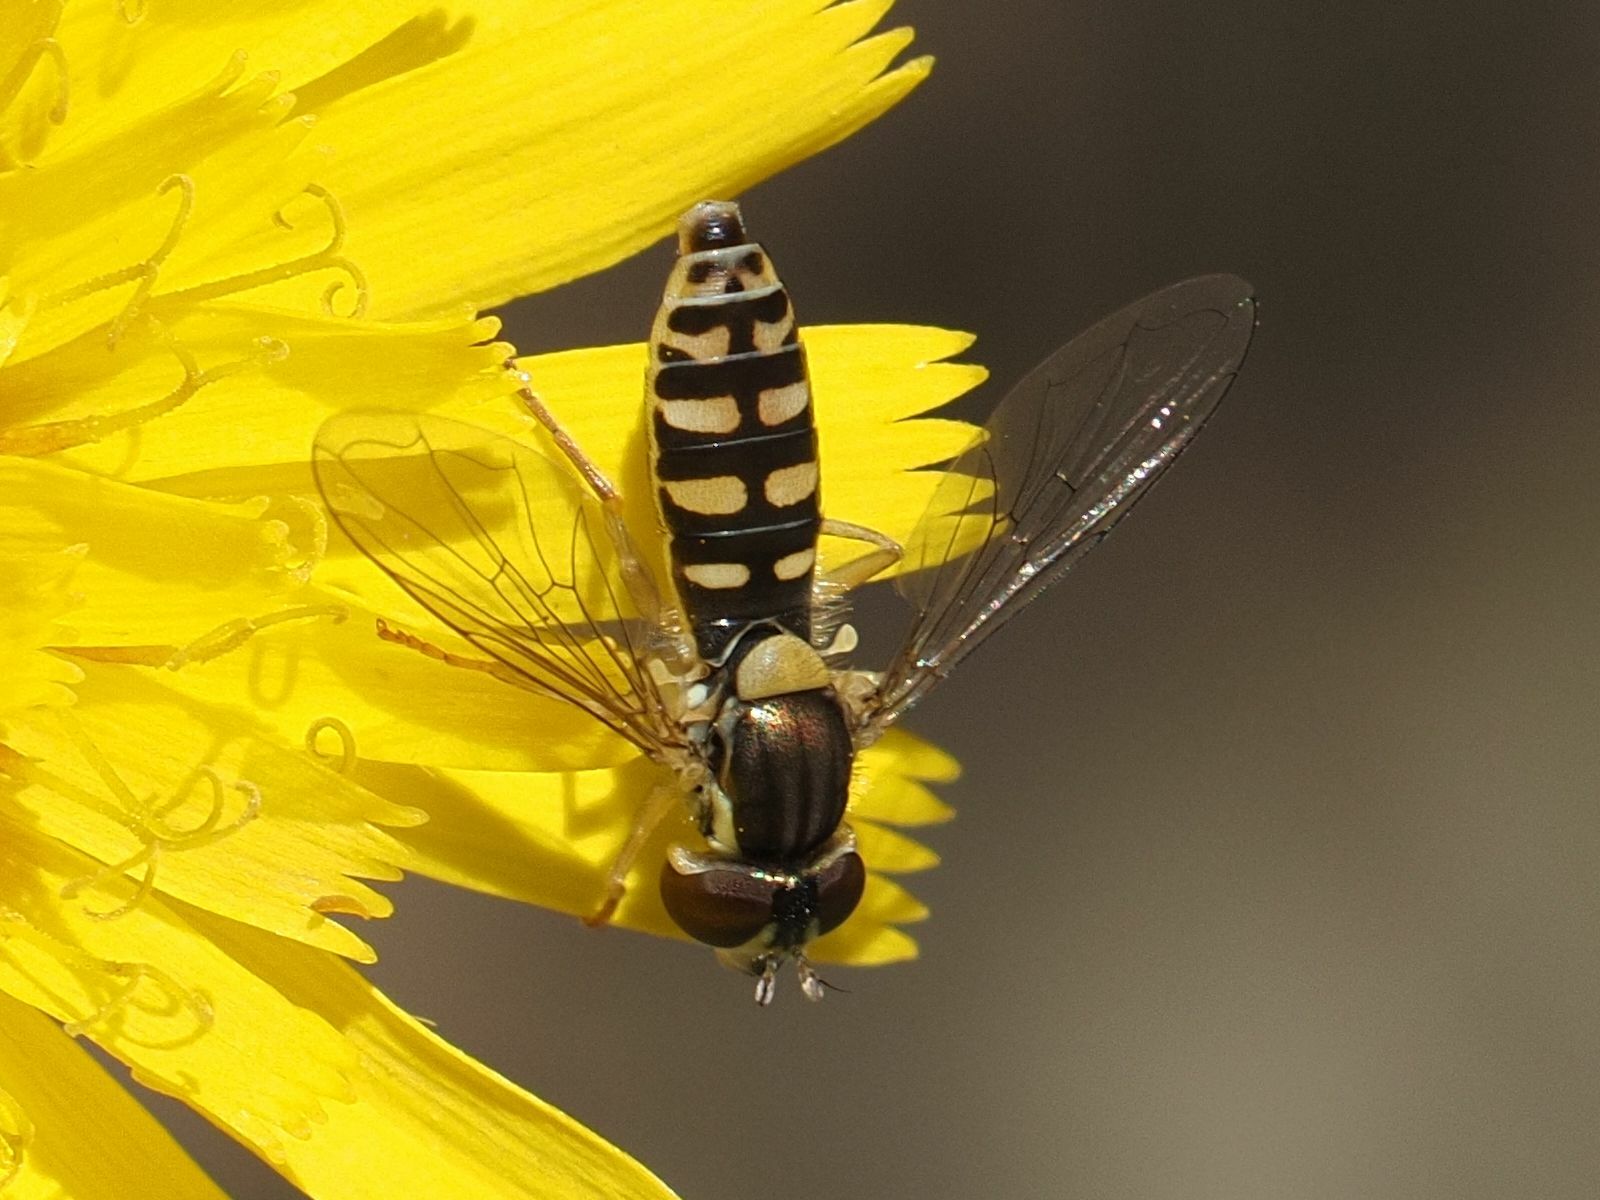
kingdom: Animalia
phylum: Arthropoda
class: Insecta
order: Diptera
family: Syrphidae
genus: Sphaerophoria
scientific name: Sphaerophoria
